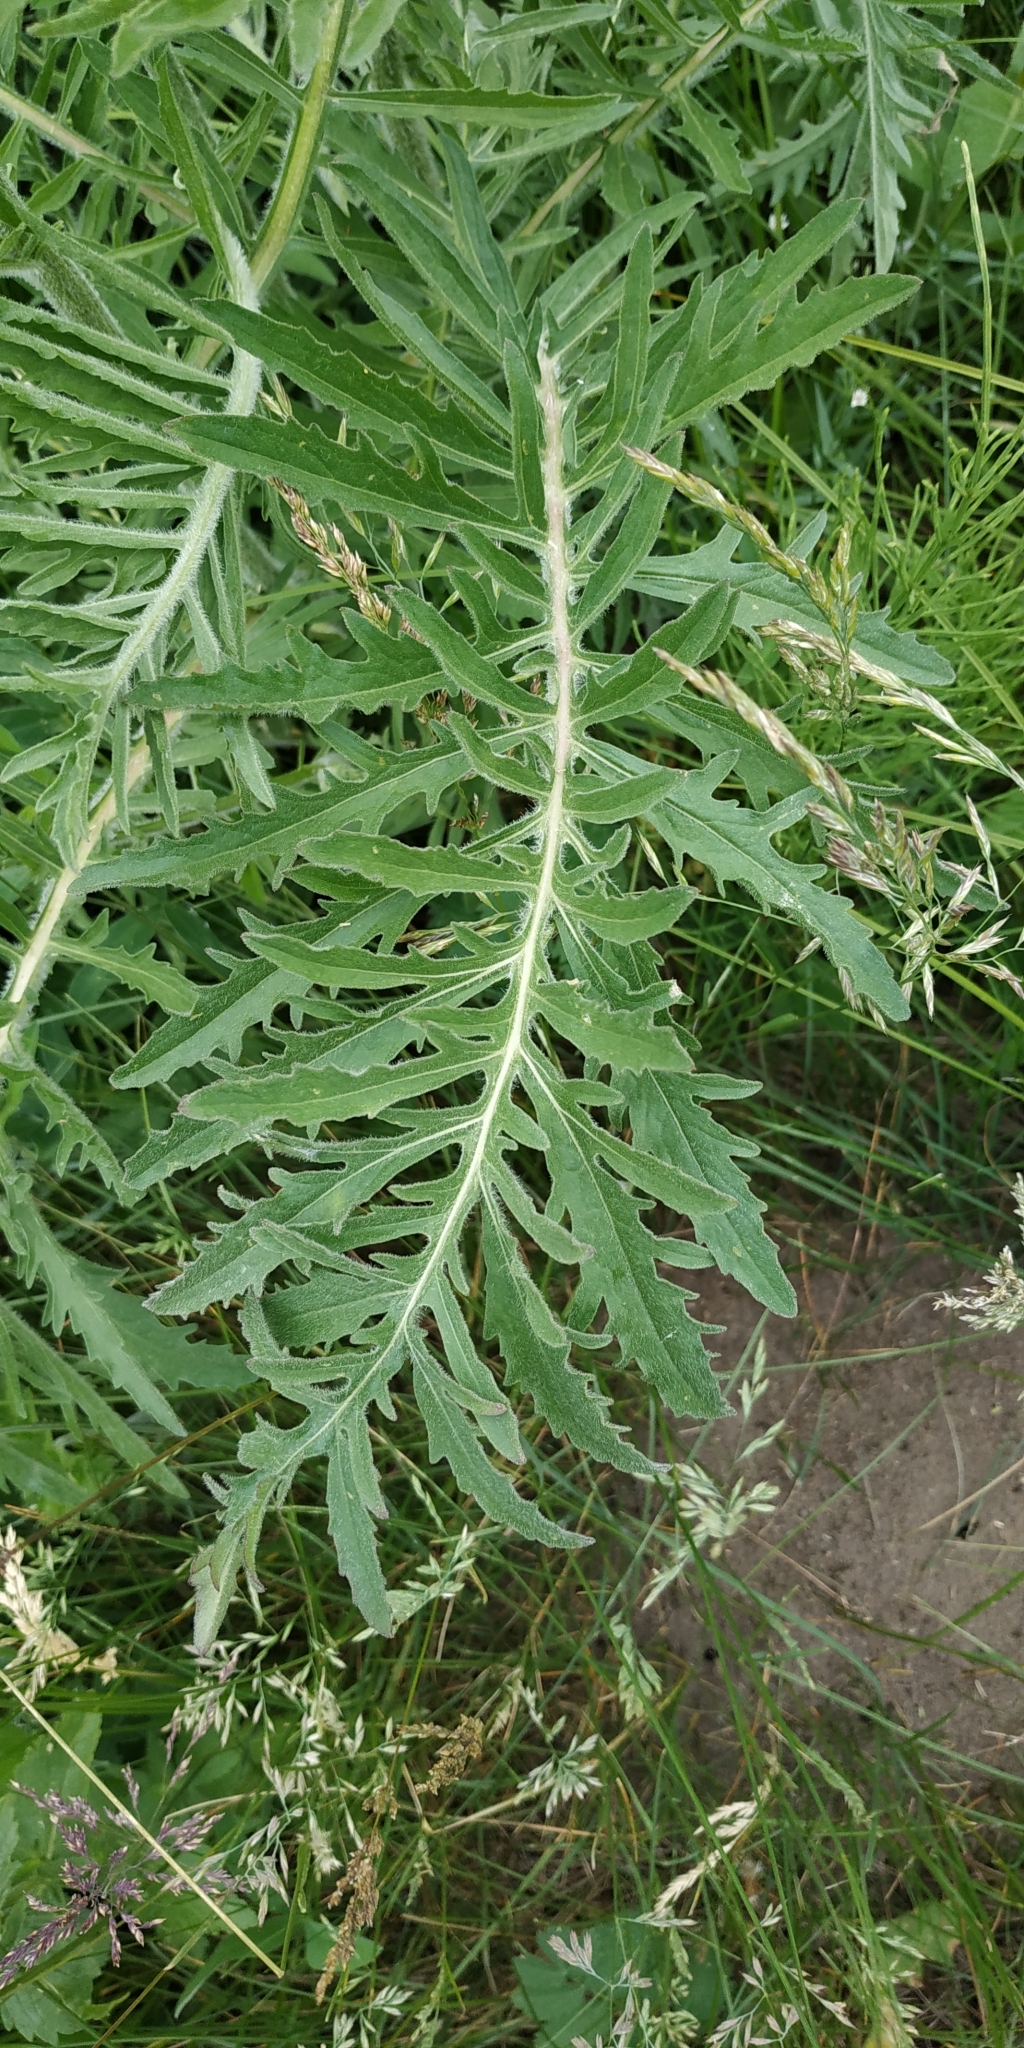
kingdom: Plantae
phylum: Tracheophyta
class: Magnoliopsida
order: Asterales
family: Asteraceae
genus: Centaurea
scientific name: Centaurea scabiosa
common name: Greater knapweed
